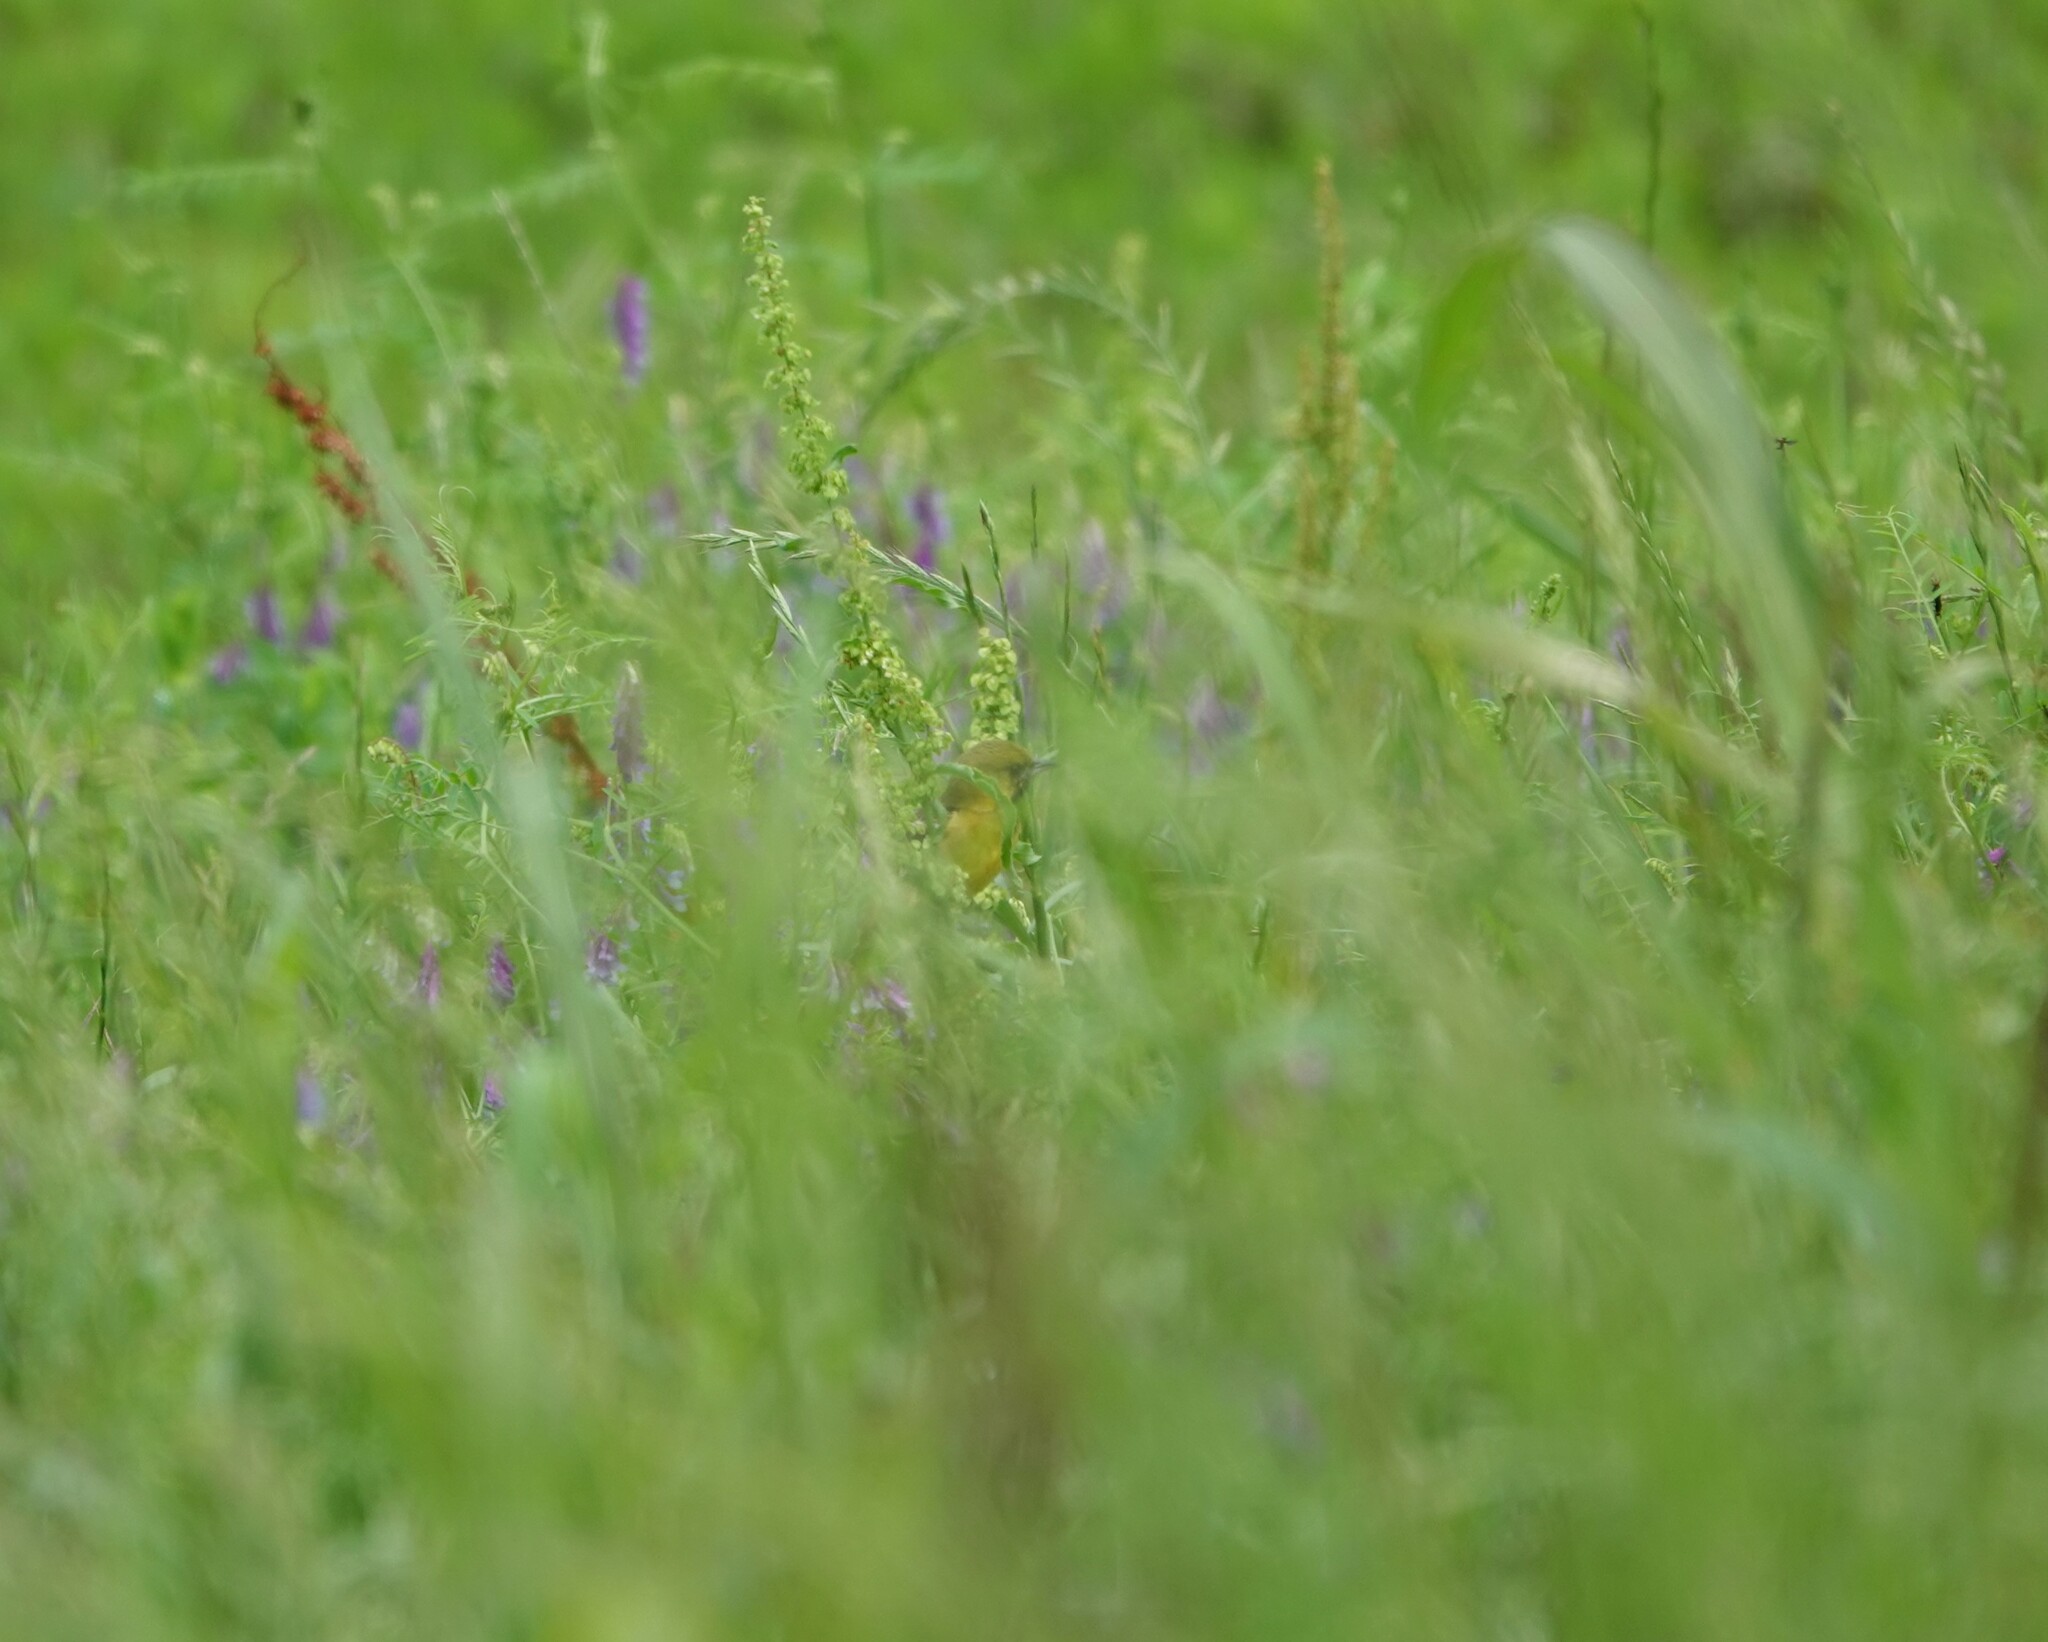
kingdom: Animalia
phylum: Chordata
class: Aves
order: Passeriformes
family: Icteridae
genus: Icterus
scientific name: Icterus spurius
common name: Orchard oriole
